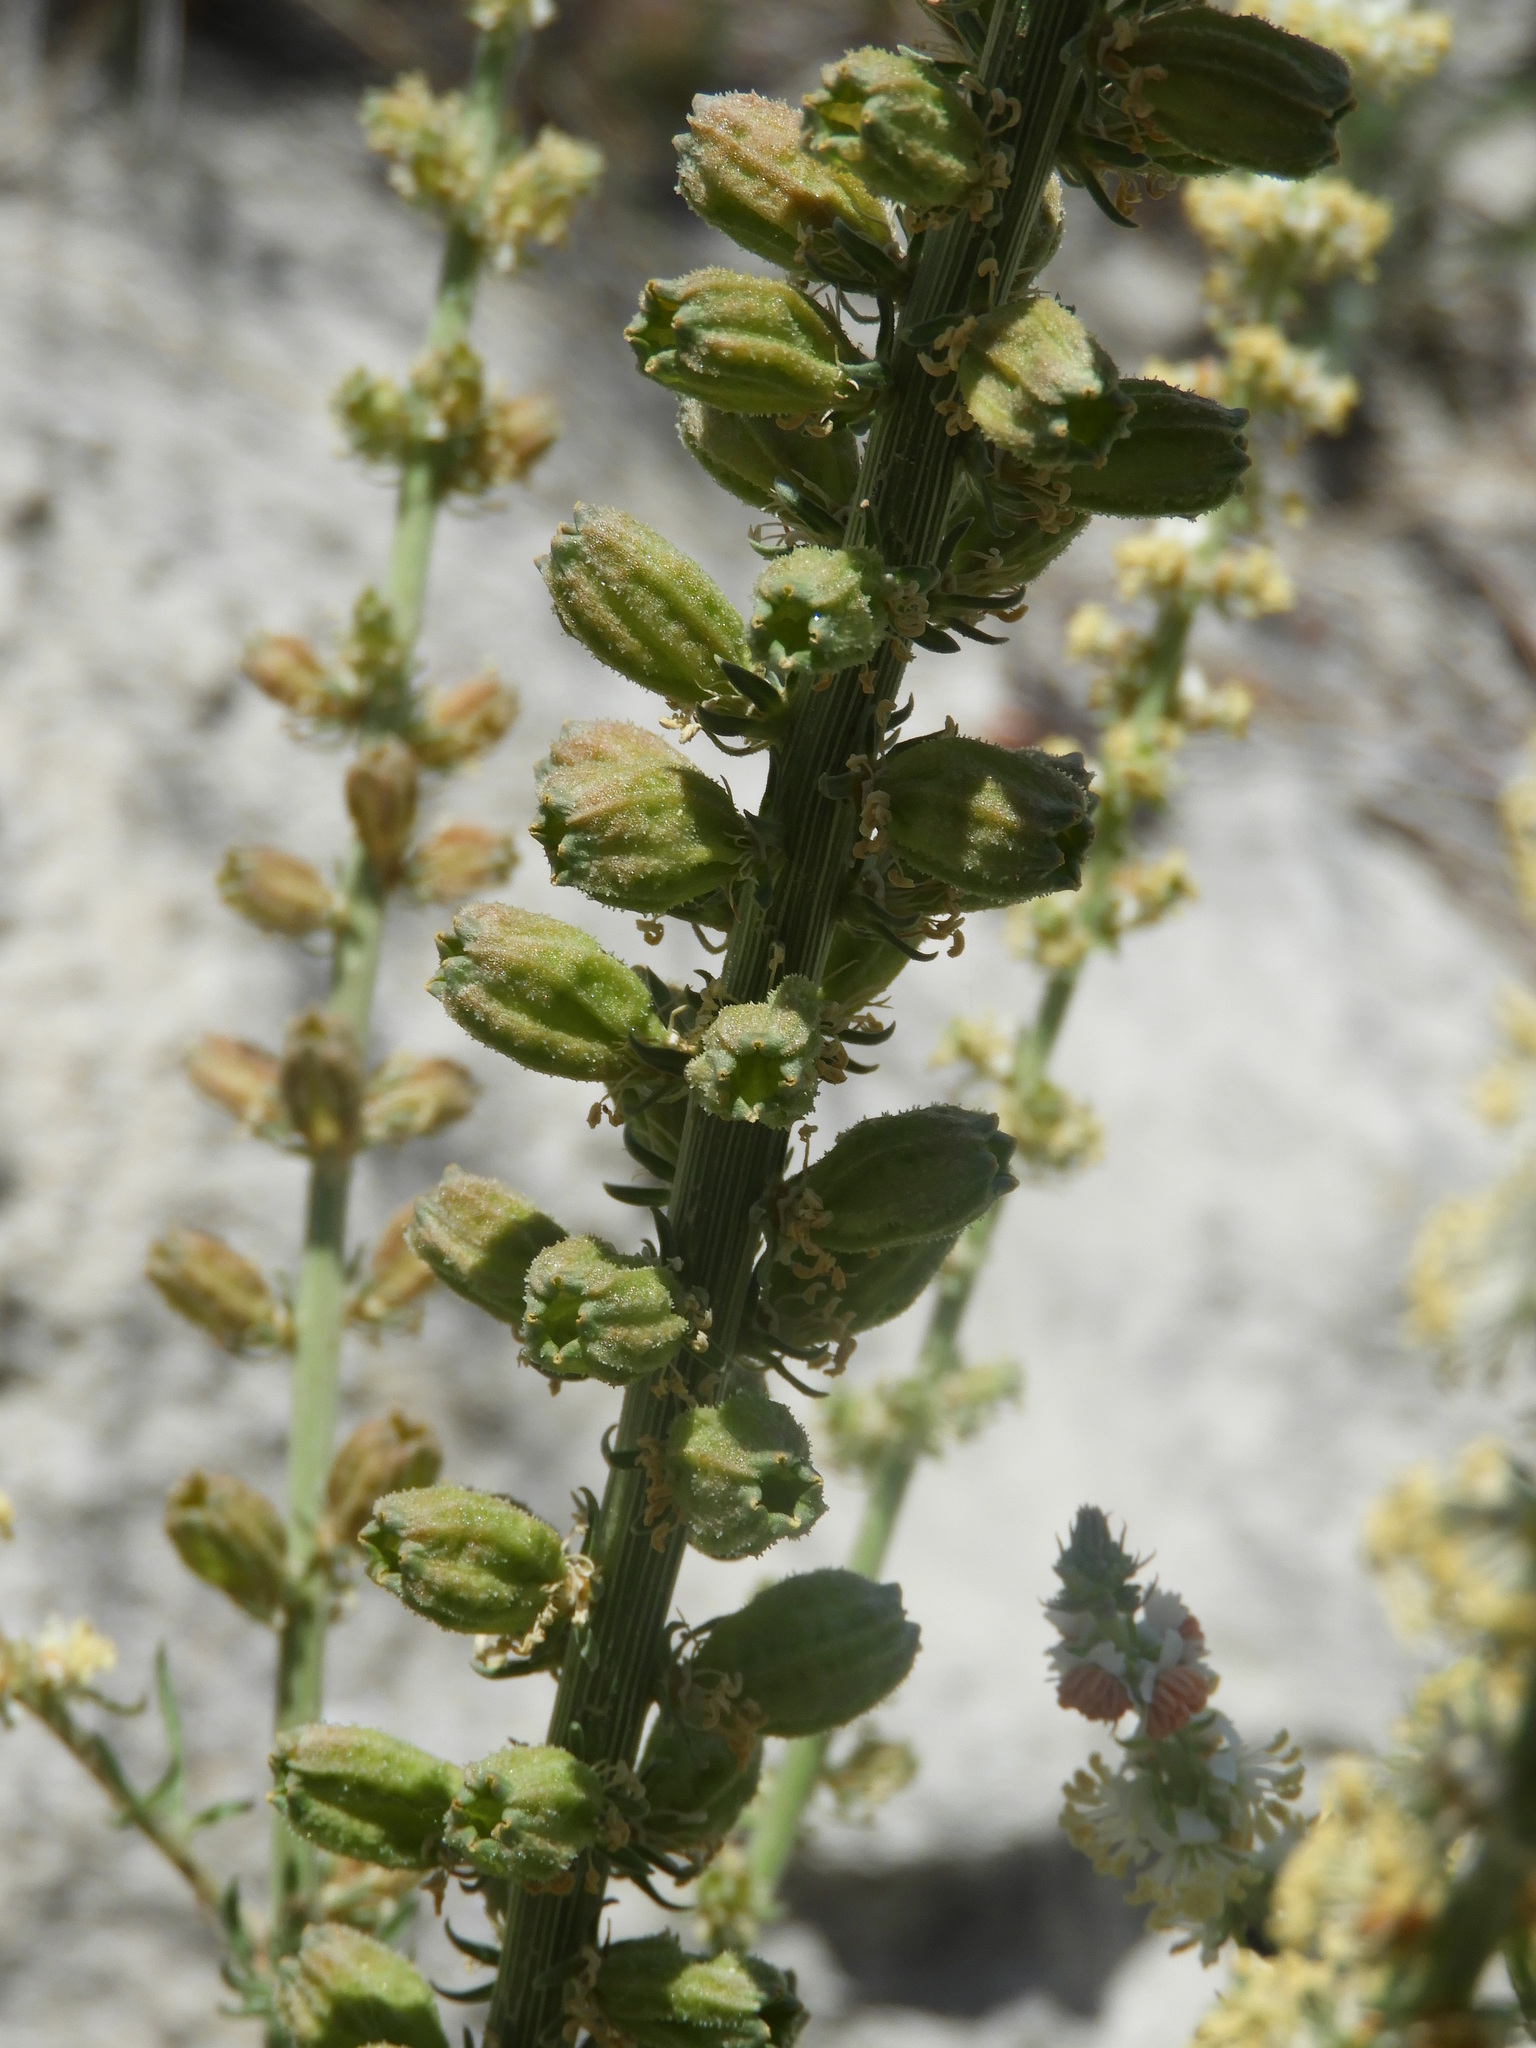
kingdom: Plantae
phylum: Tracheophyta
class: Magnoliopsida
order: Brassicales
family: Resedaceae
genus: Reseda
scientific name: Reseda suffruticosa
